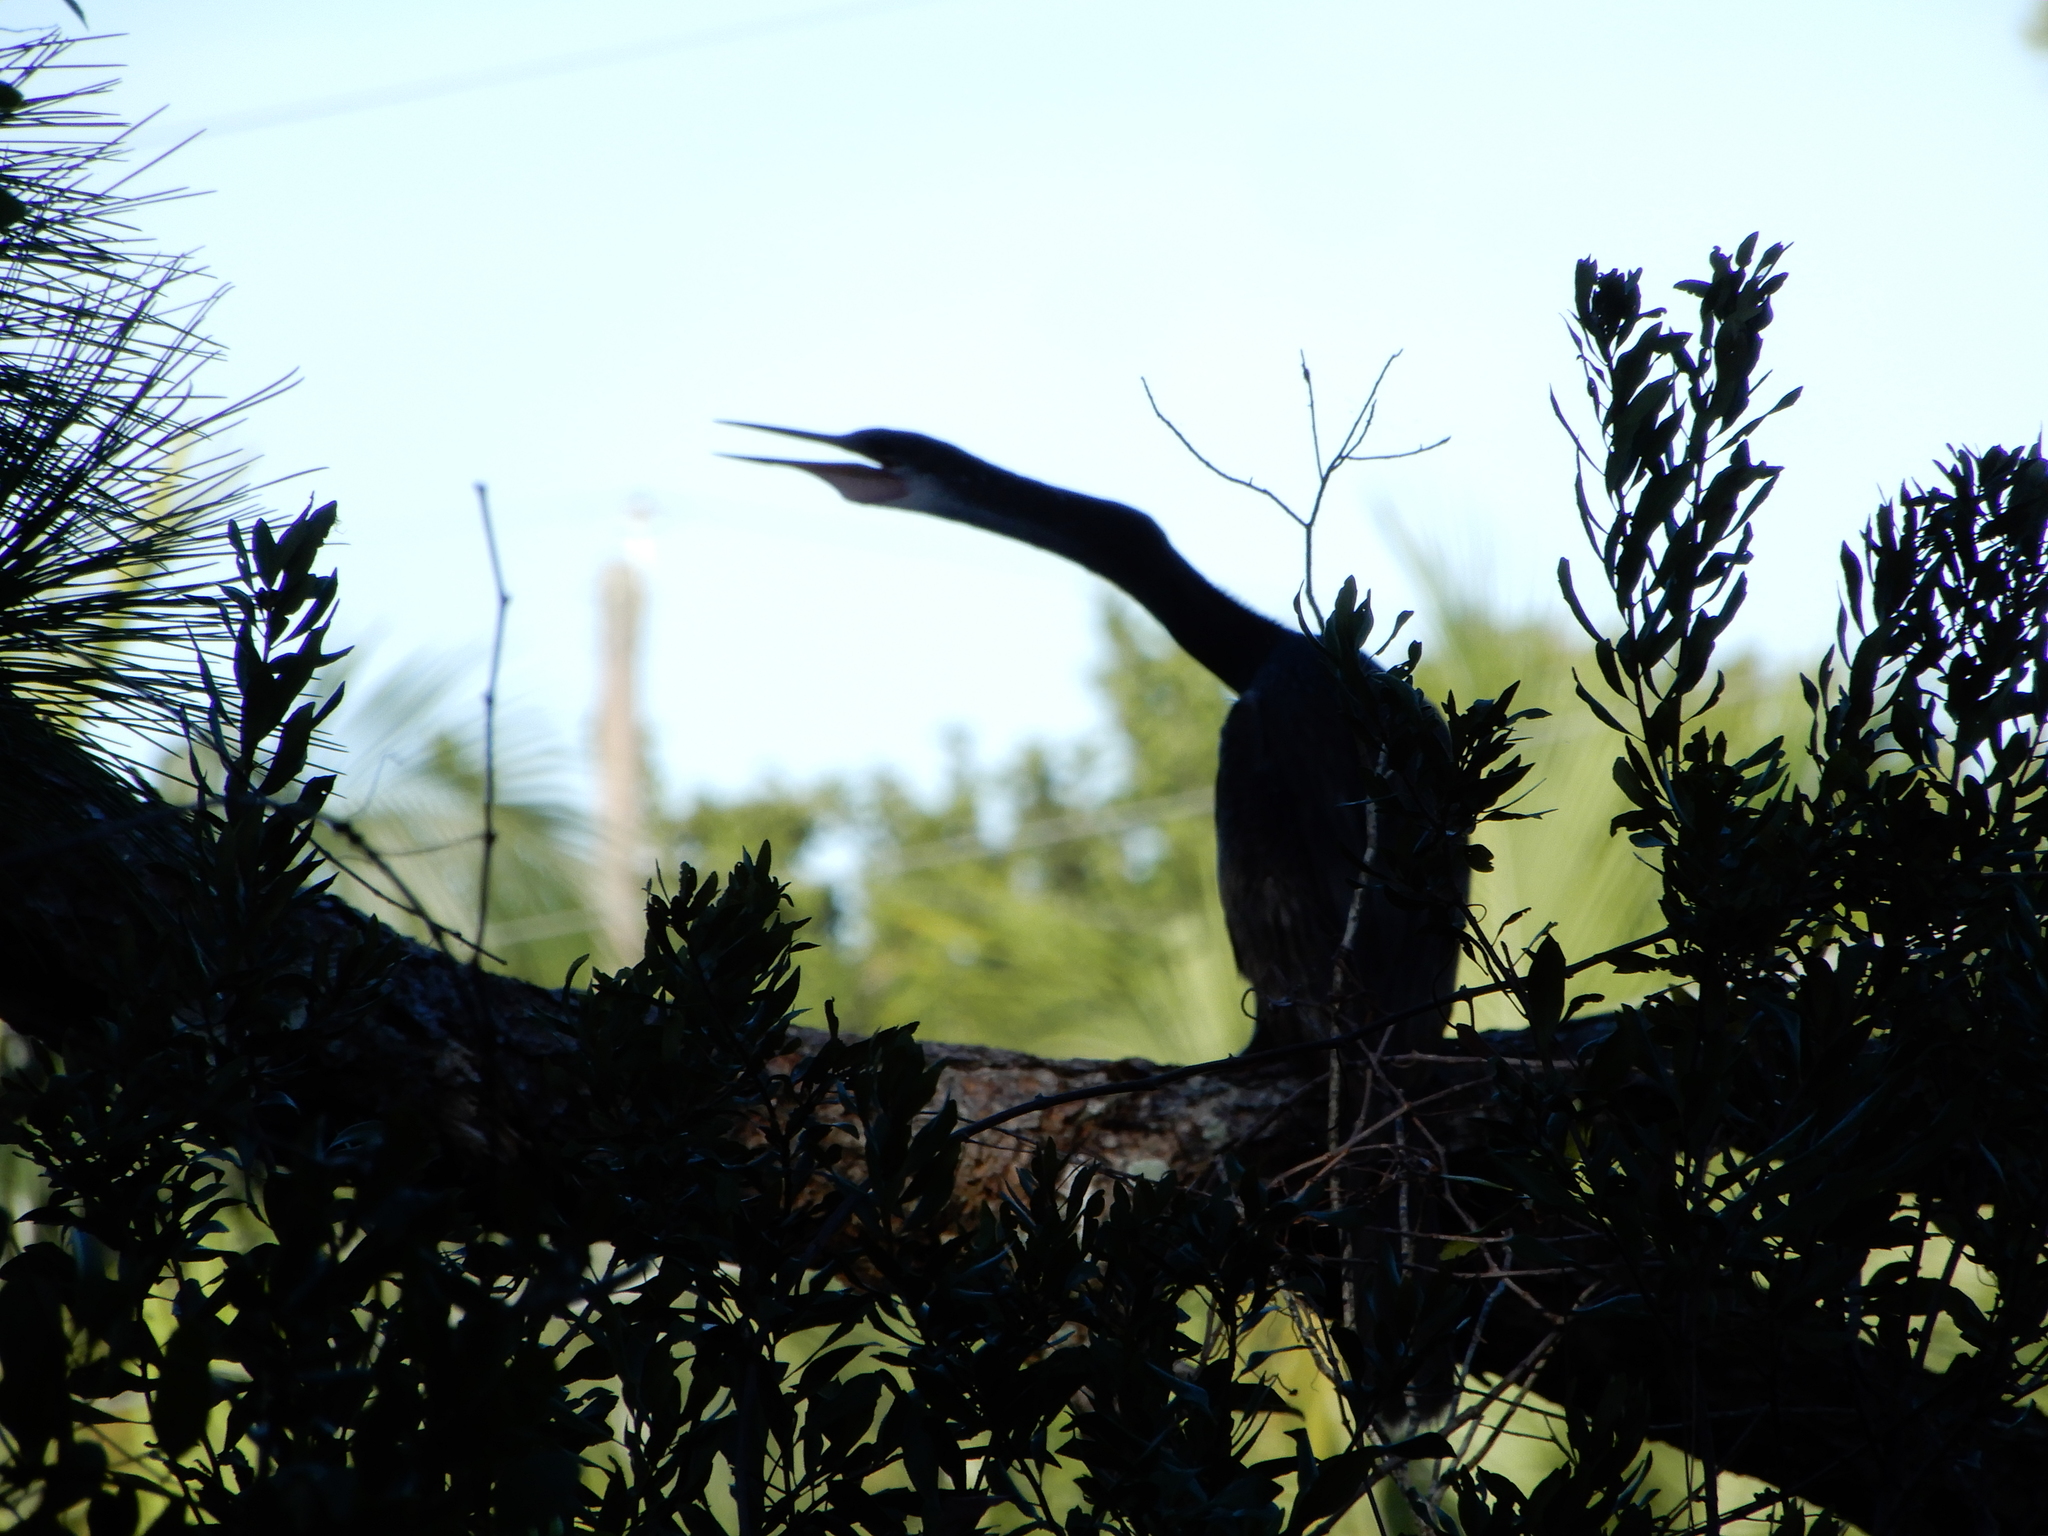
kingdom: Animalia
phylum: Chordata
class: Aves
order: Suliformes
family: Anhingidae
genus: Anhinga
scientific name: Anhinga anhinga
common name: Anhinga
